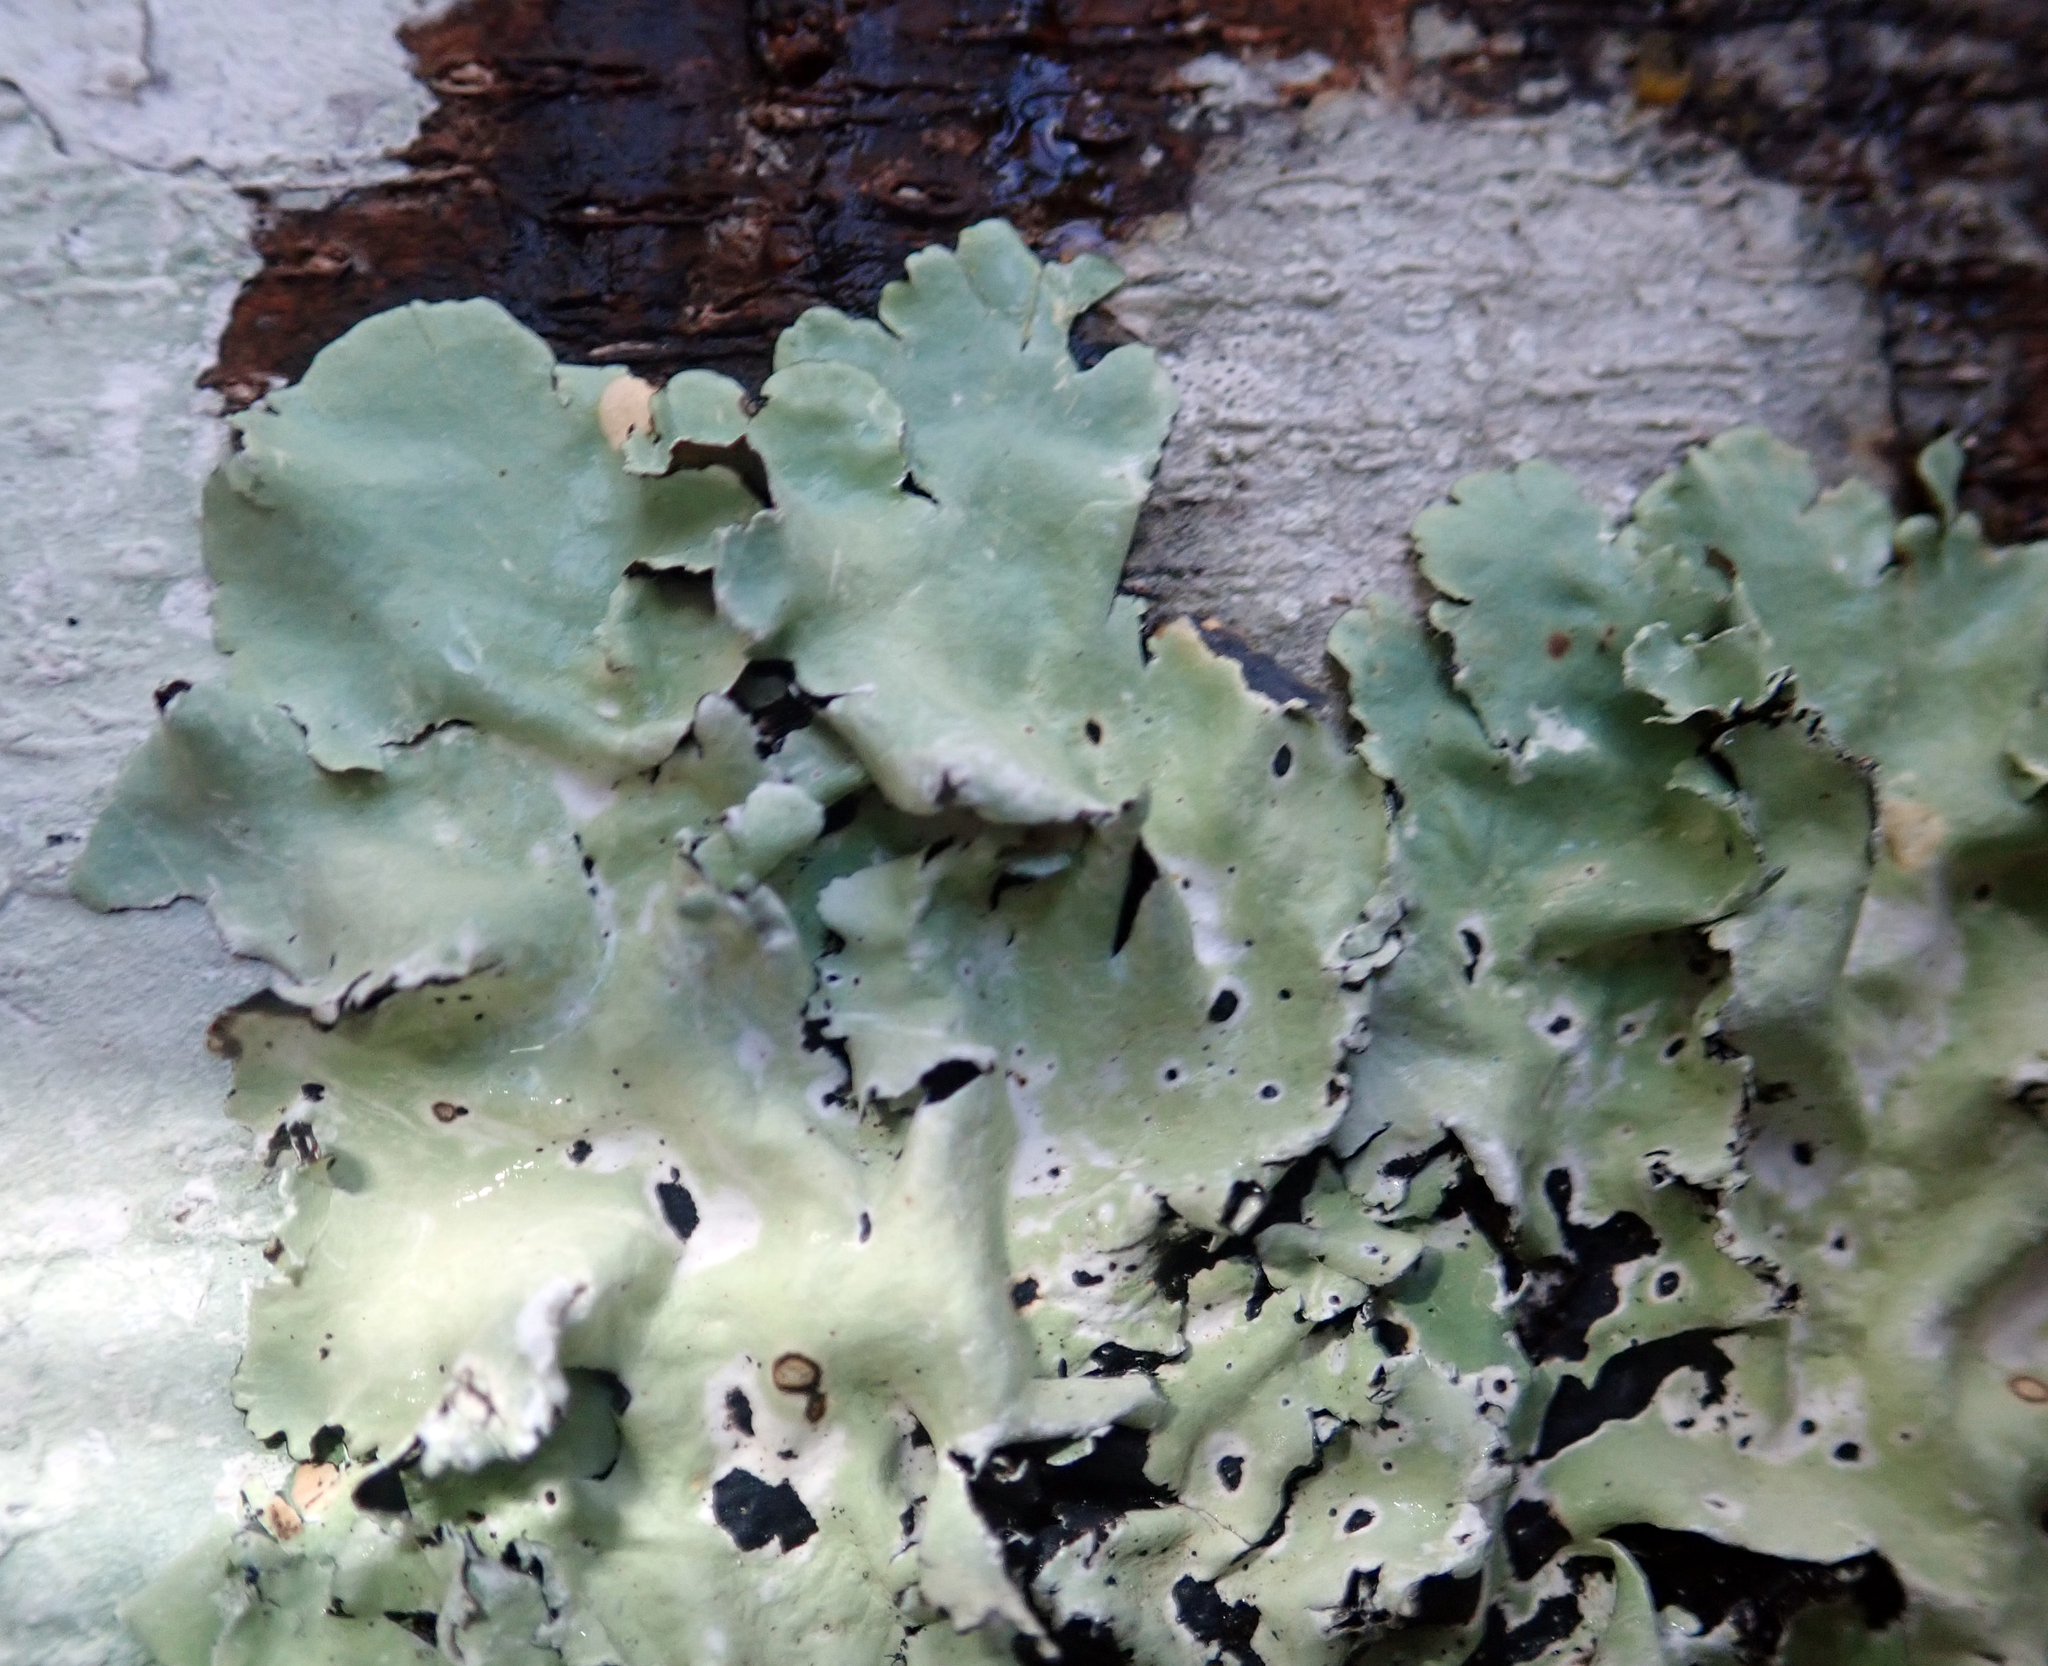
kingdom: Fungi
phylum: Ascomycota
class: Lecanoromycetes
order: Lecanorales
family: Parmeliaceae
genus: Parmotrema
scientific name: Parmotrema robustum
